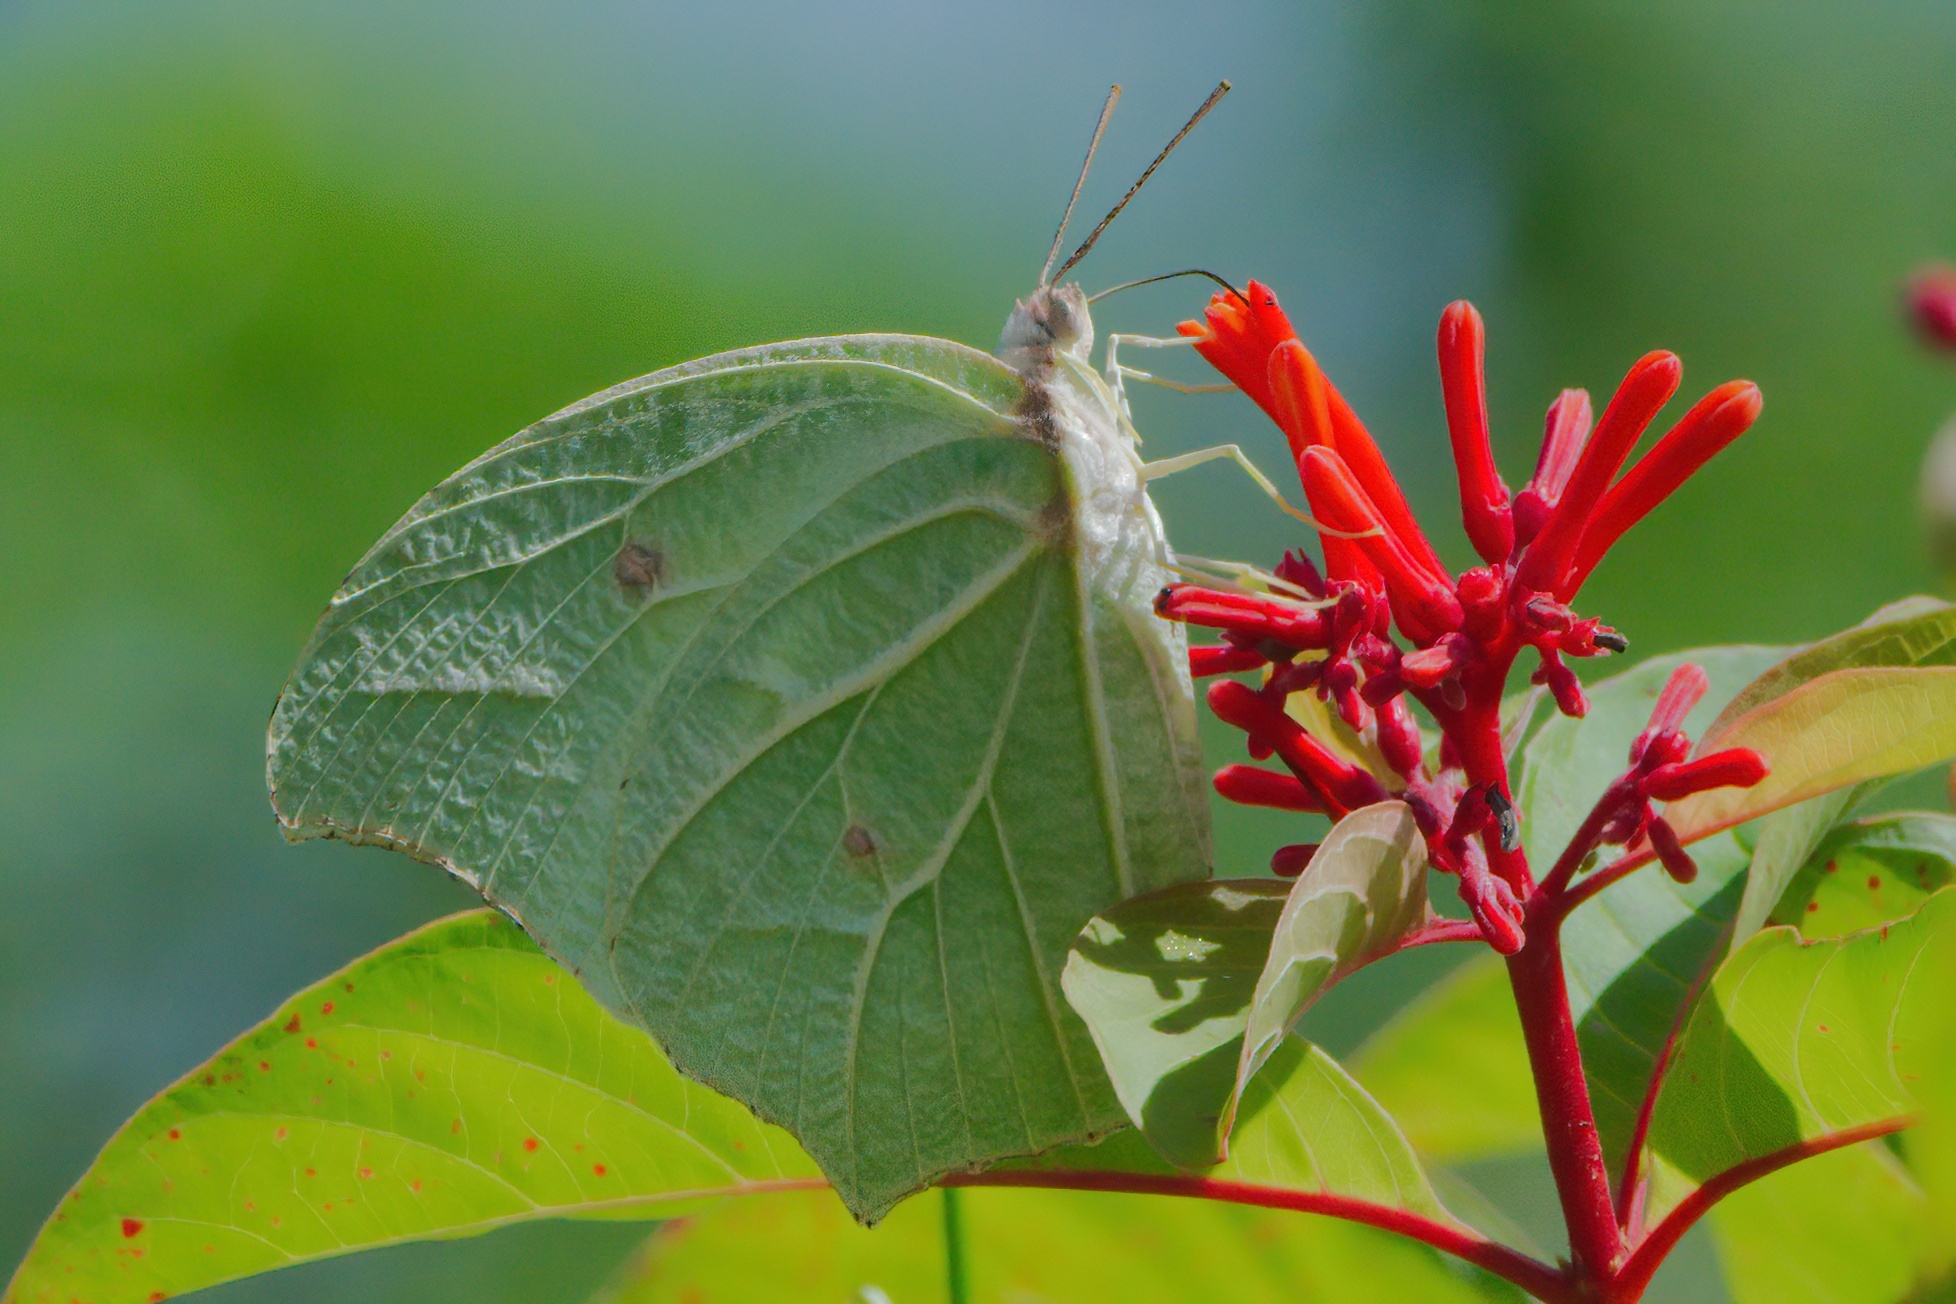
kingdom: Animalia
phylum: Arthropoda
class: Insecta
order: Lepidoptera
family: Pieridae
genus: Anteos
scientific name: Anteos clorinde
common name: White angled sulphur
